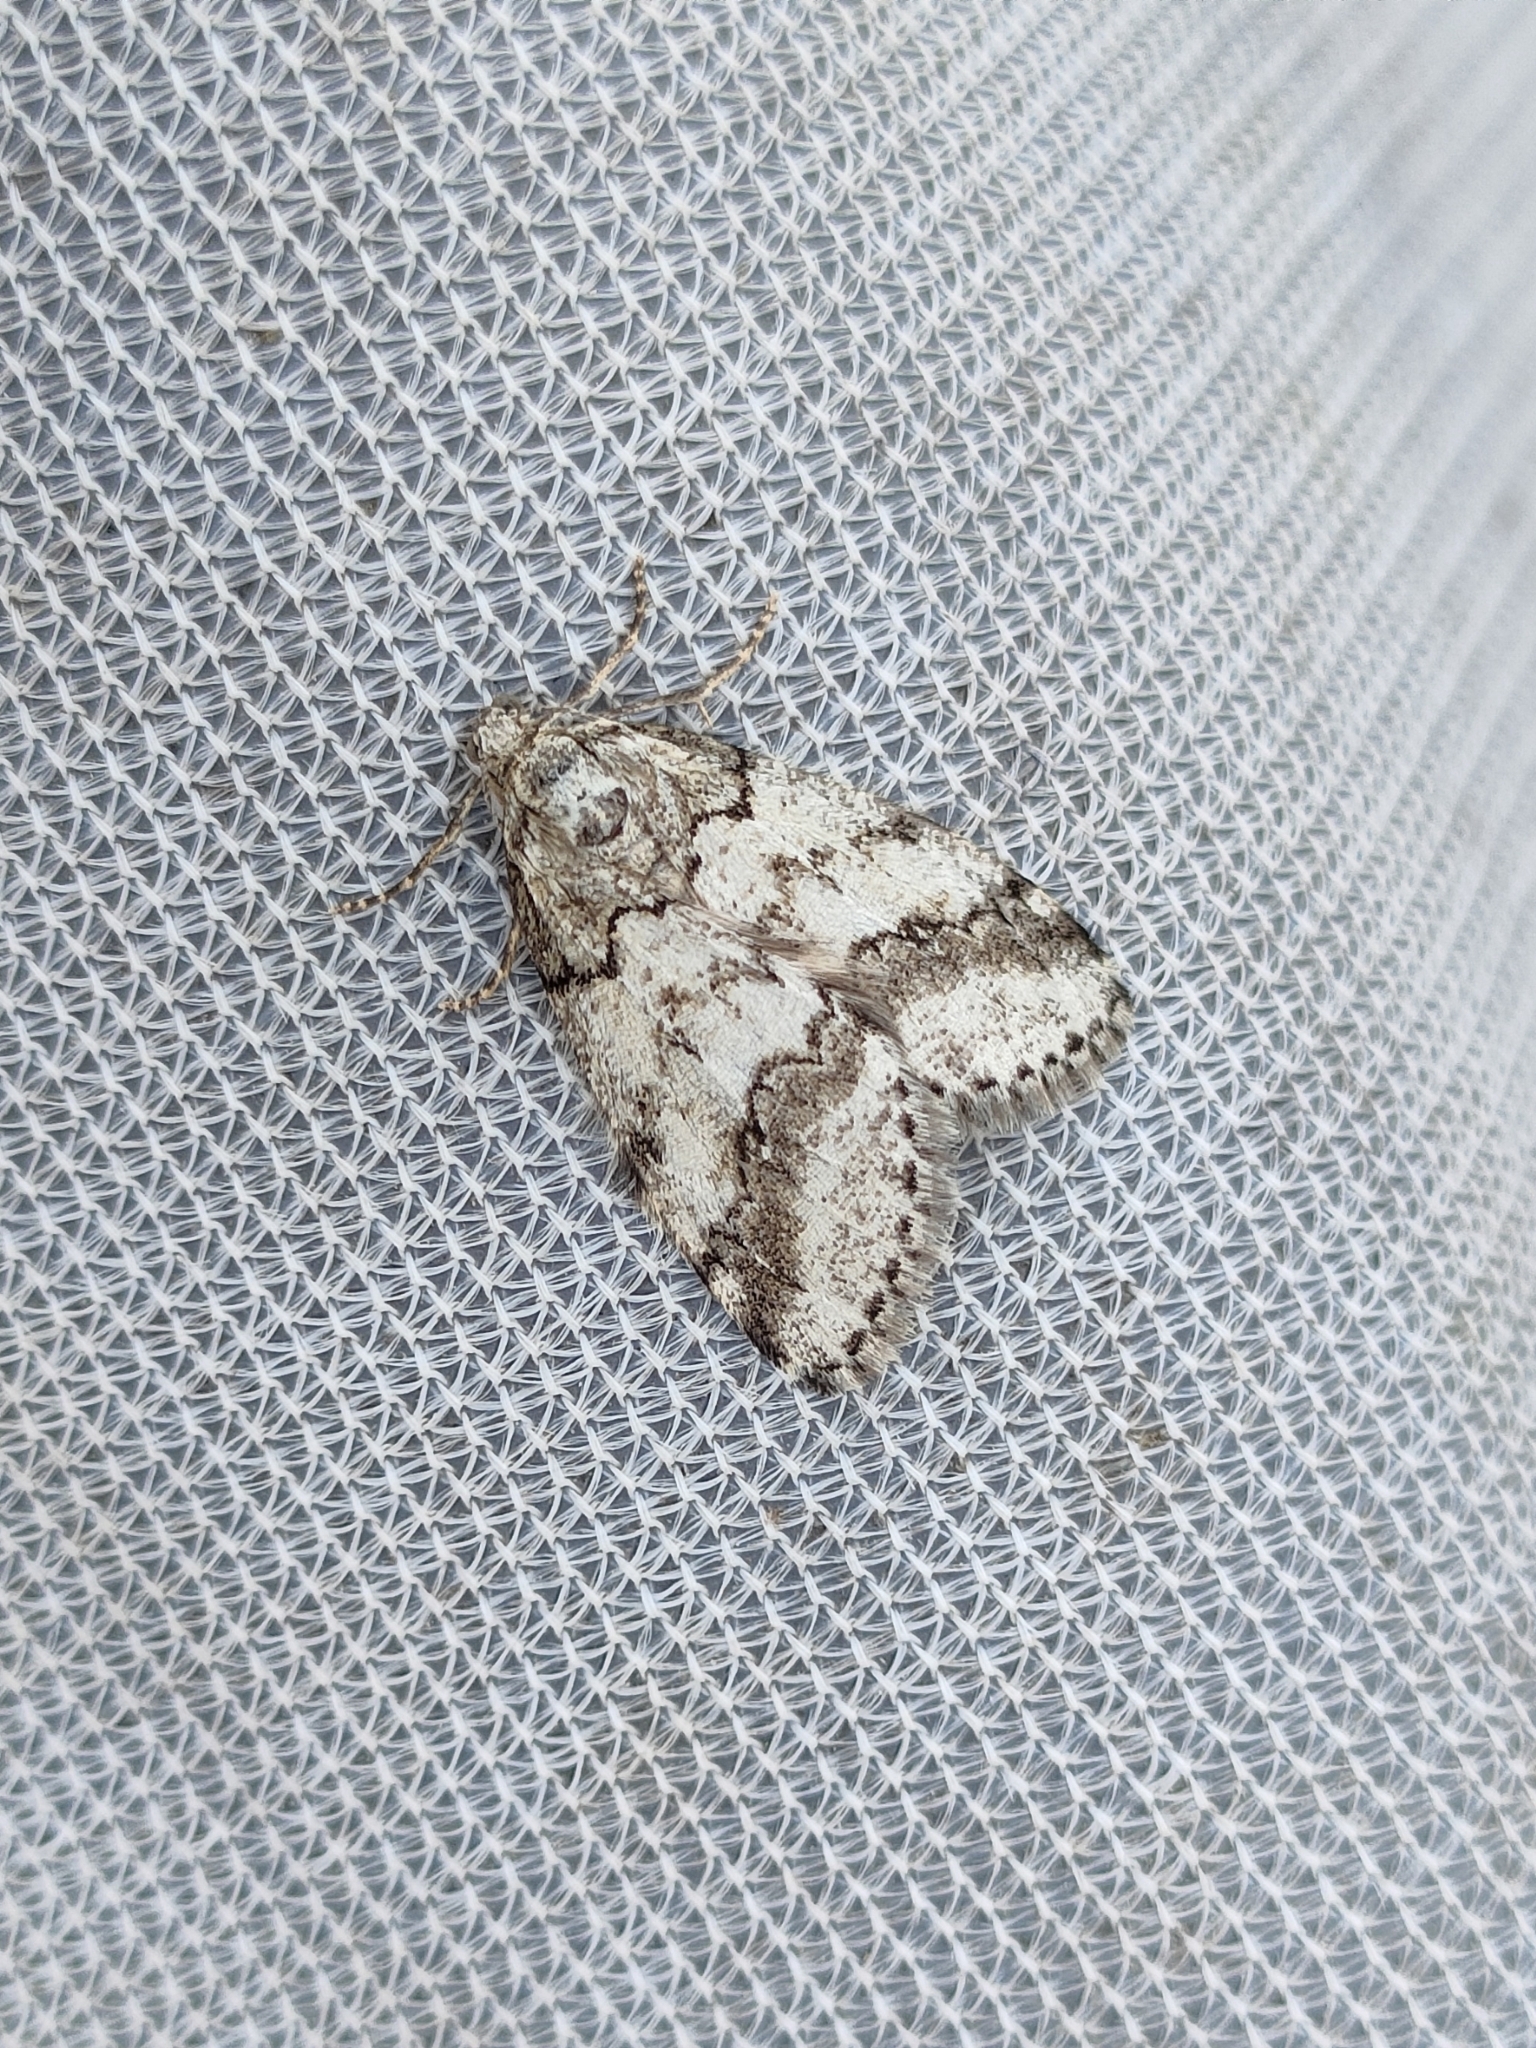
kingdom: Animalia
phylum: Arthropoda
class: Insecta
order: Lepidoptera
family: Geometridae
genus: Tephronia
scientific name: Tephronia lhommaria
